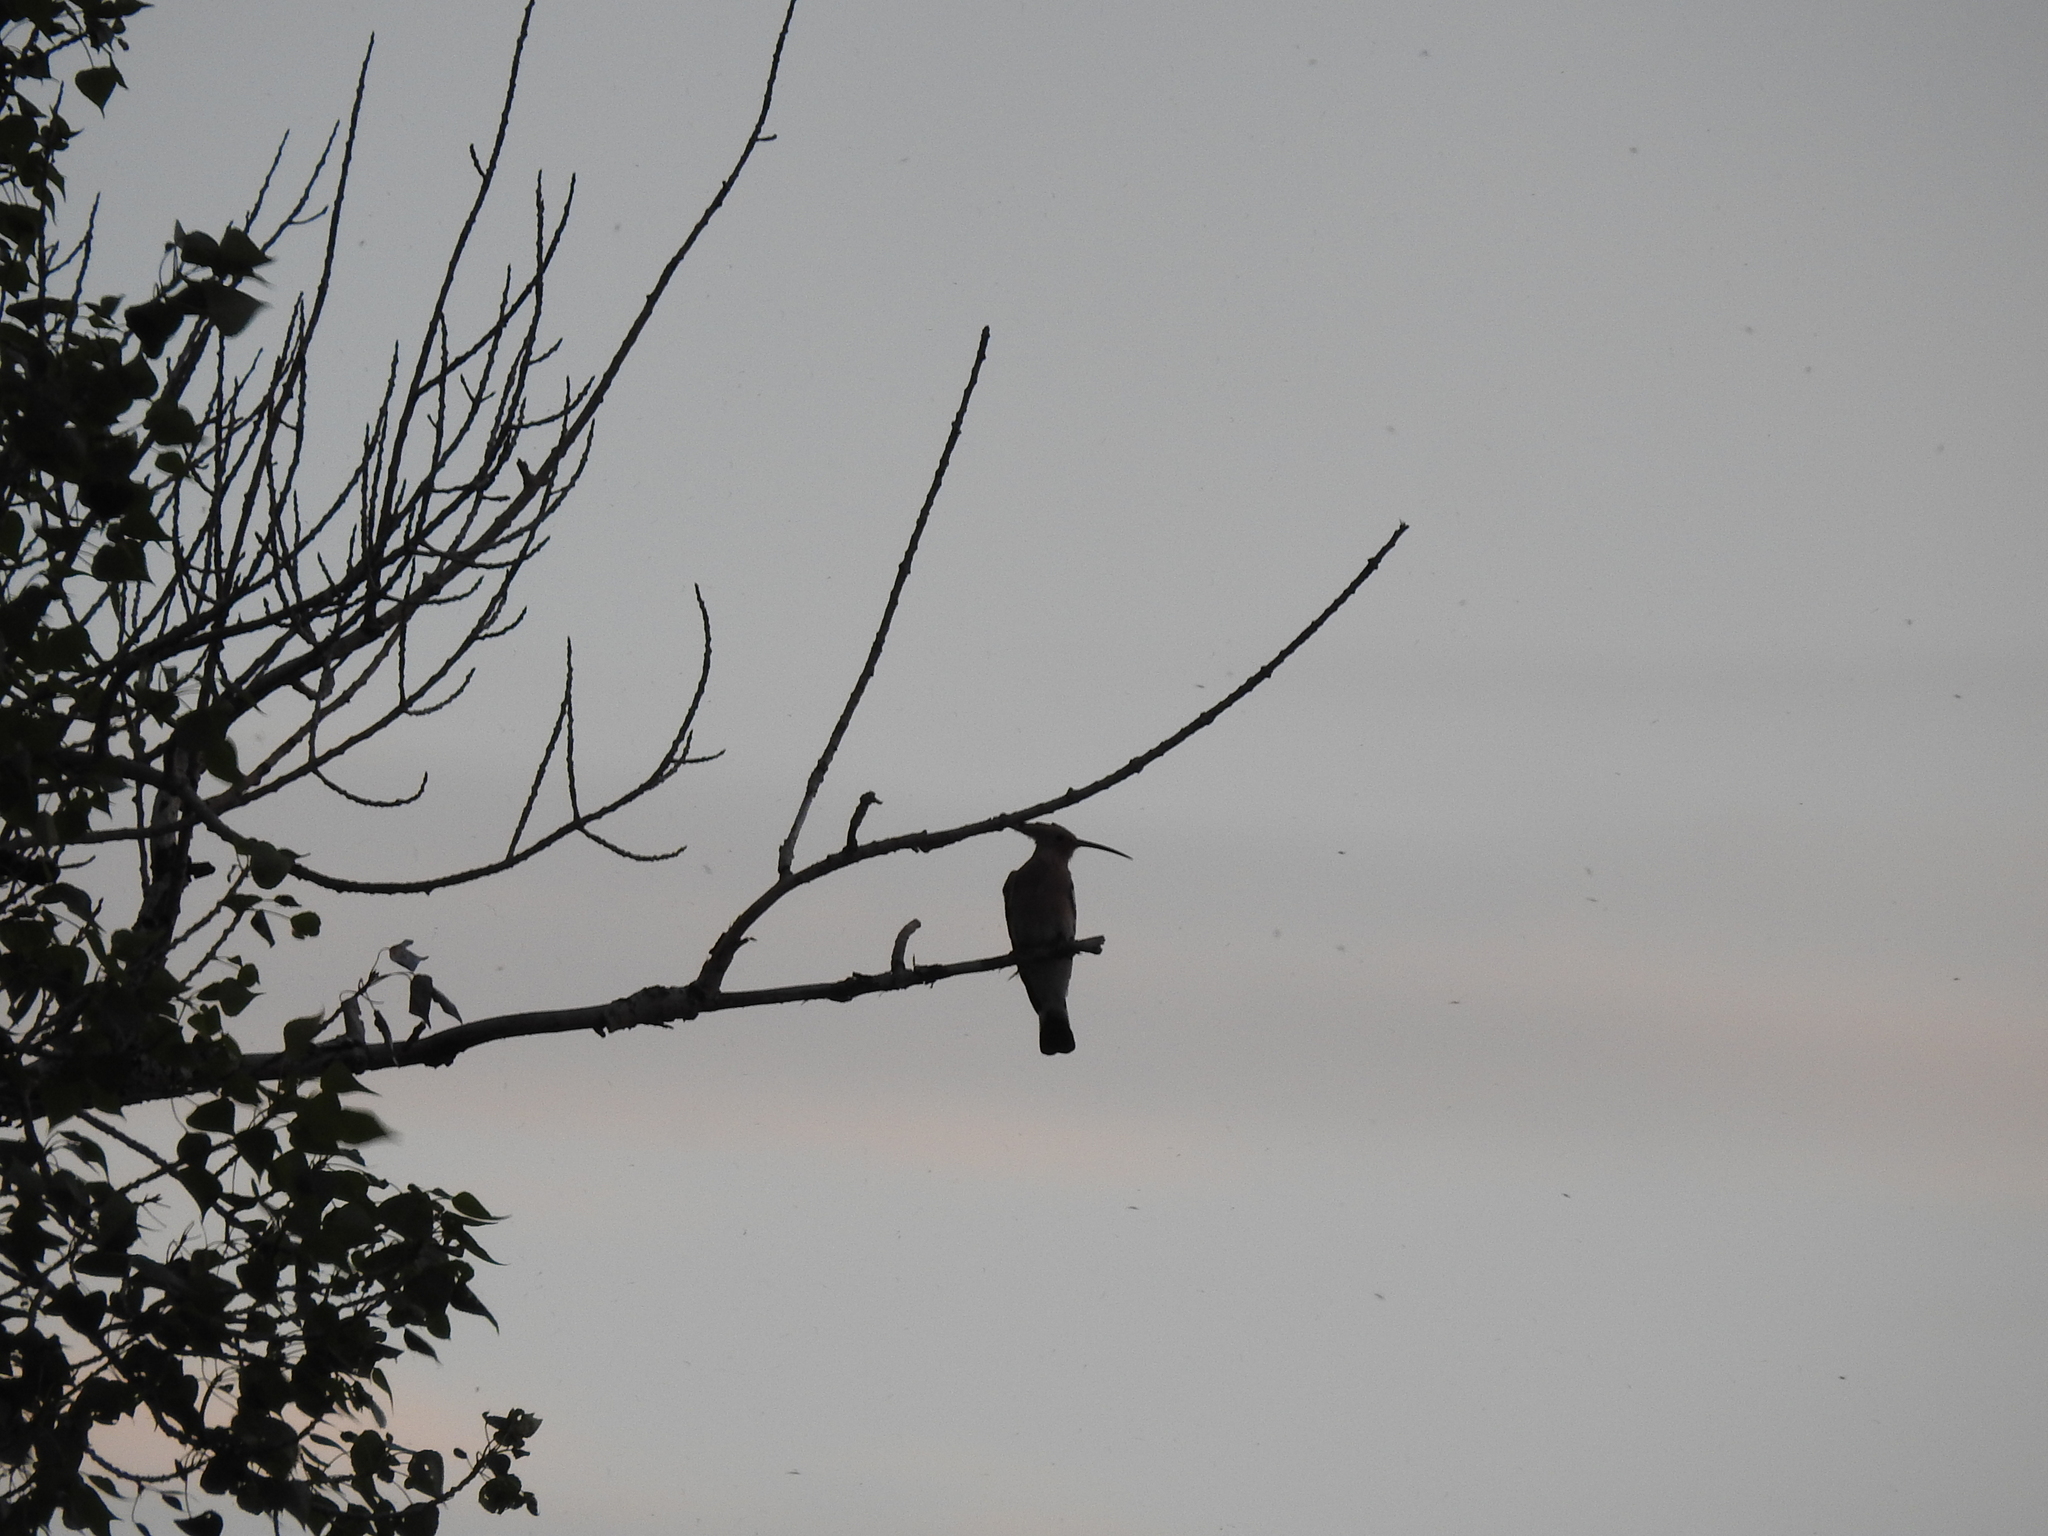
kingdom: Animalia
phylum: Chordata
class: Aves
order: Bucerotiformes
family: Upupidae
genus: Upupa
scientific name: Upupa epops
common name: Eurasian hoopoe
